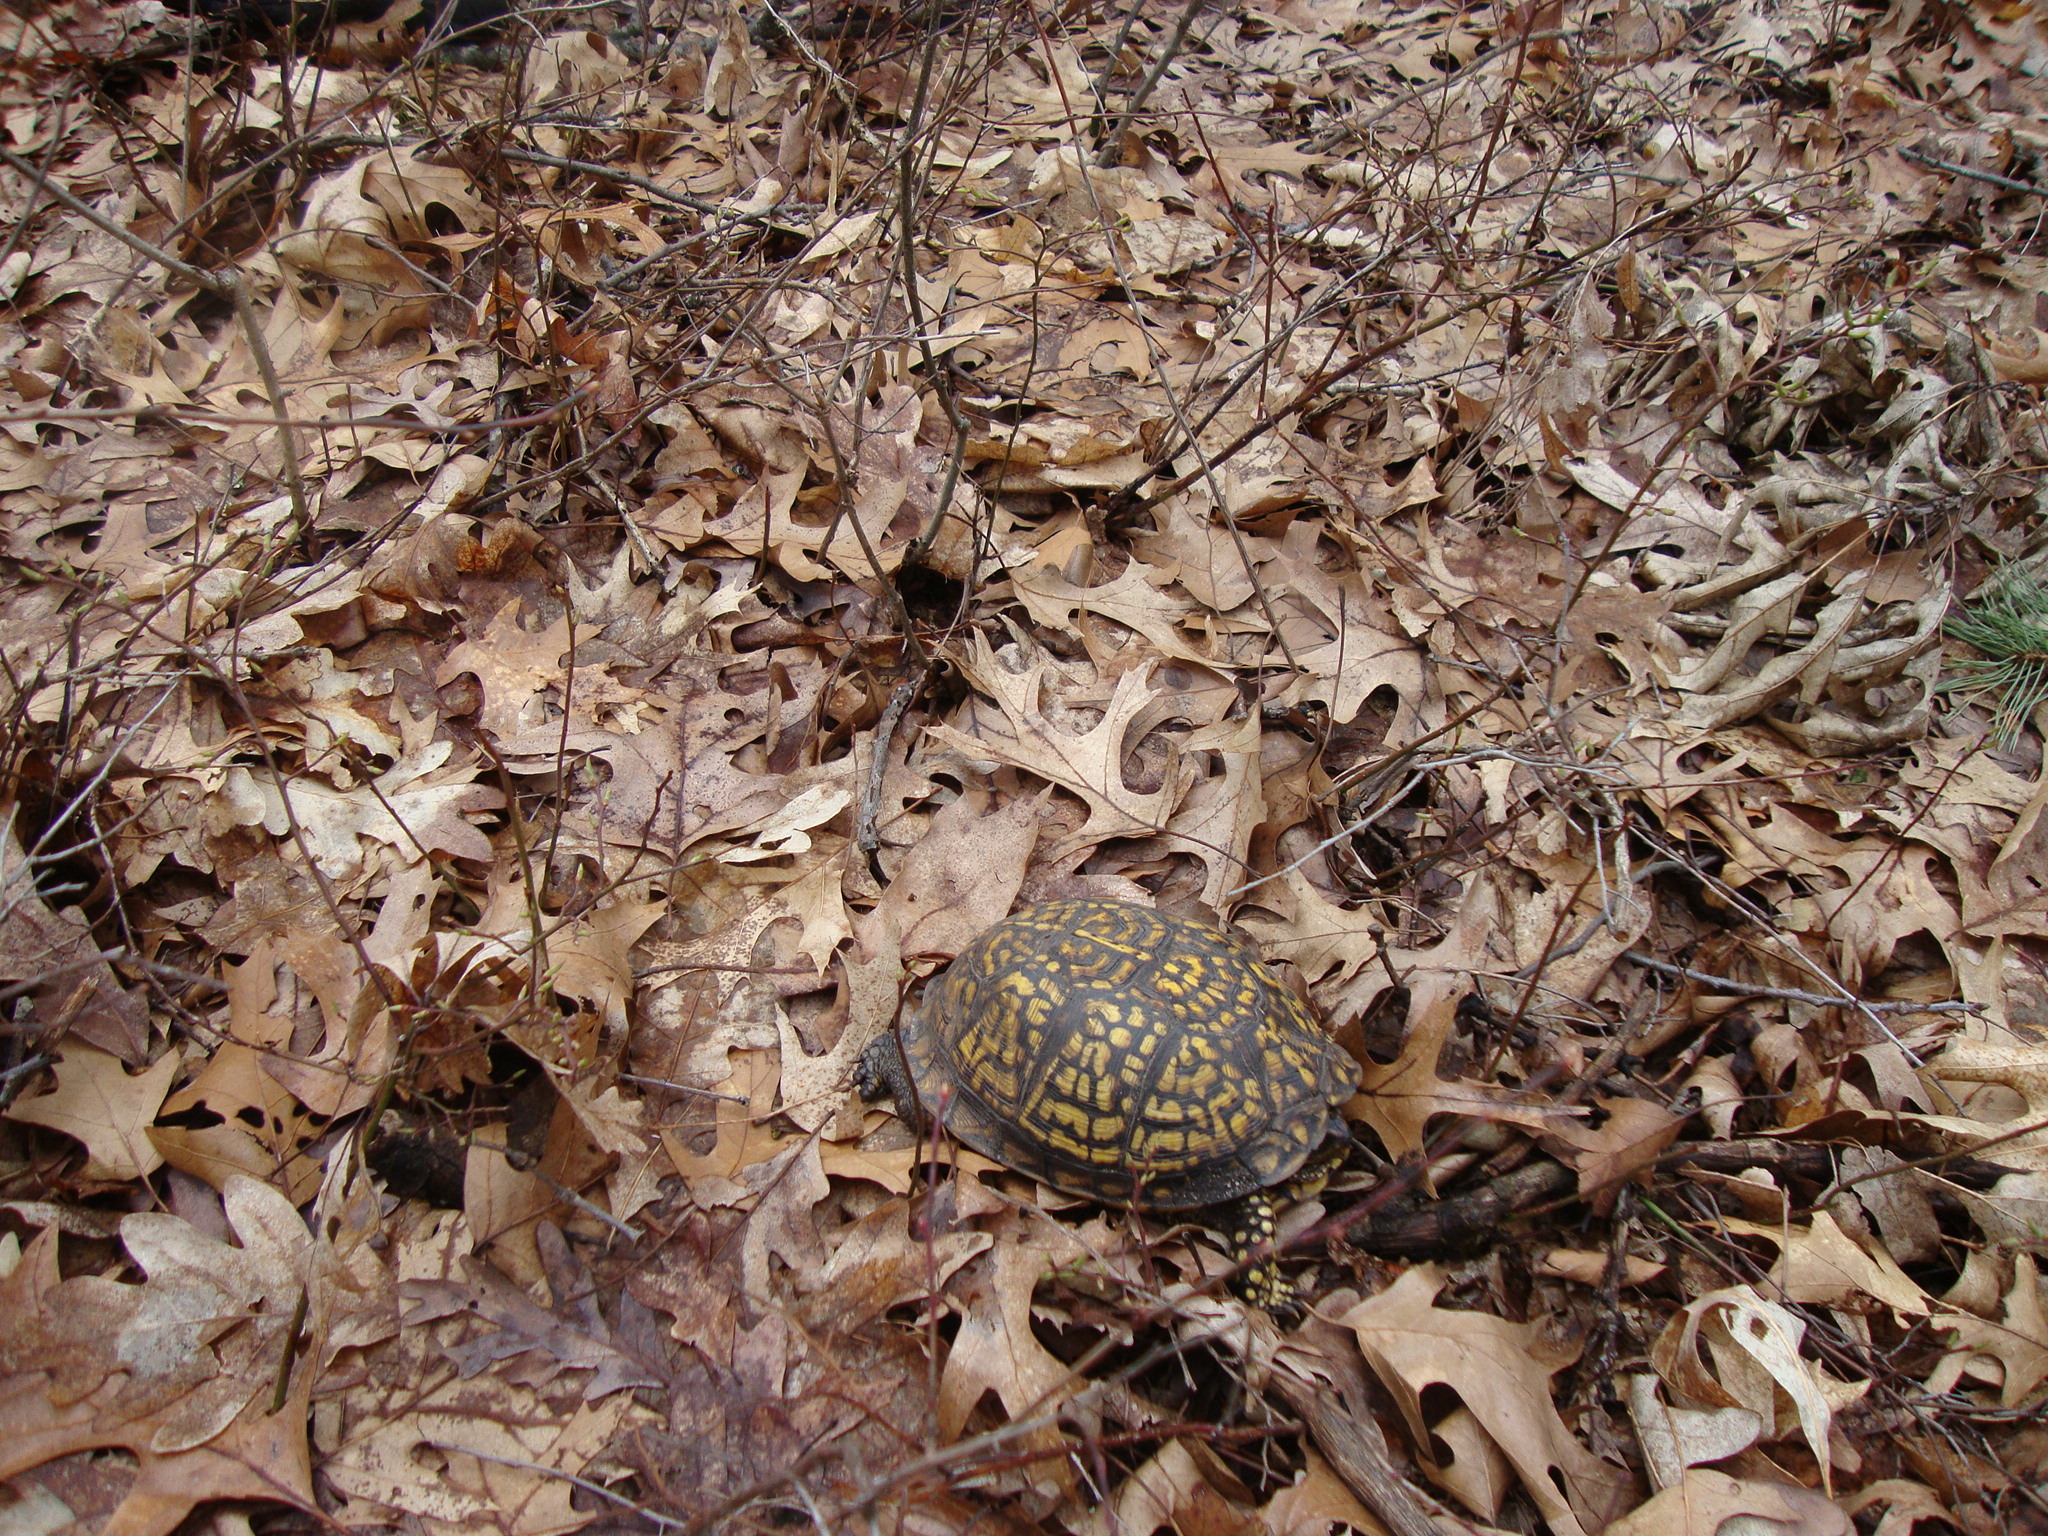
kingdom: Animalia
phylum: Chordata
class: Testudines
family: Emydidae
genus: Terrapene
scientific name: Terrapene carolina
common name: Common box turtle
